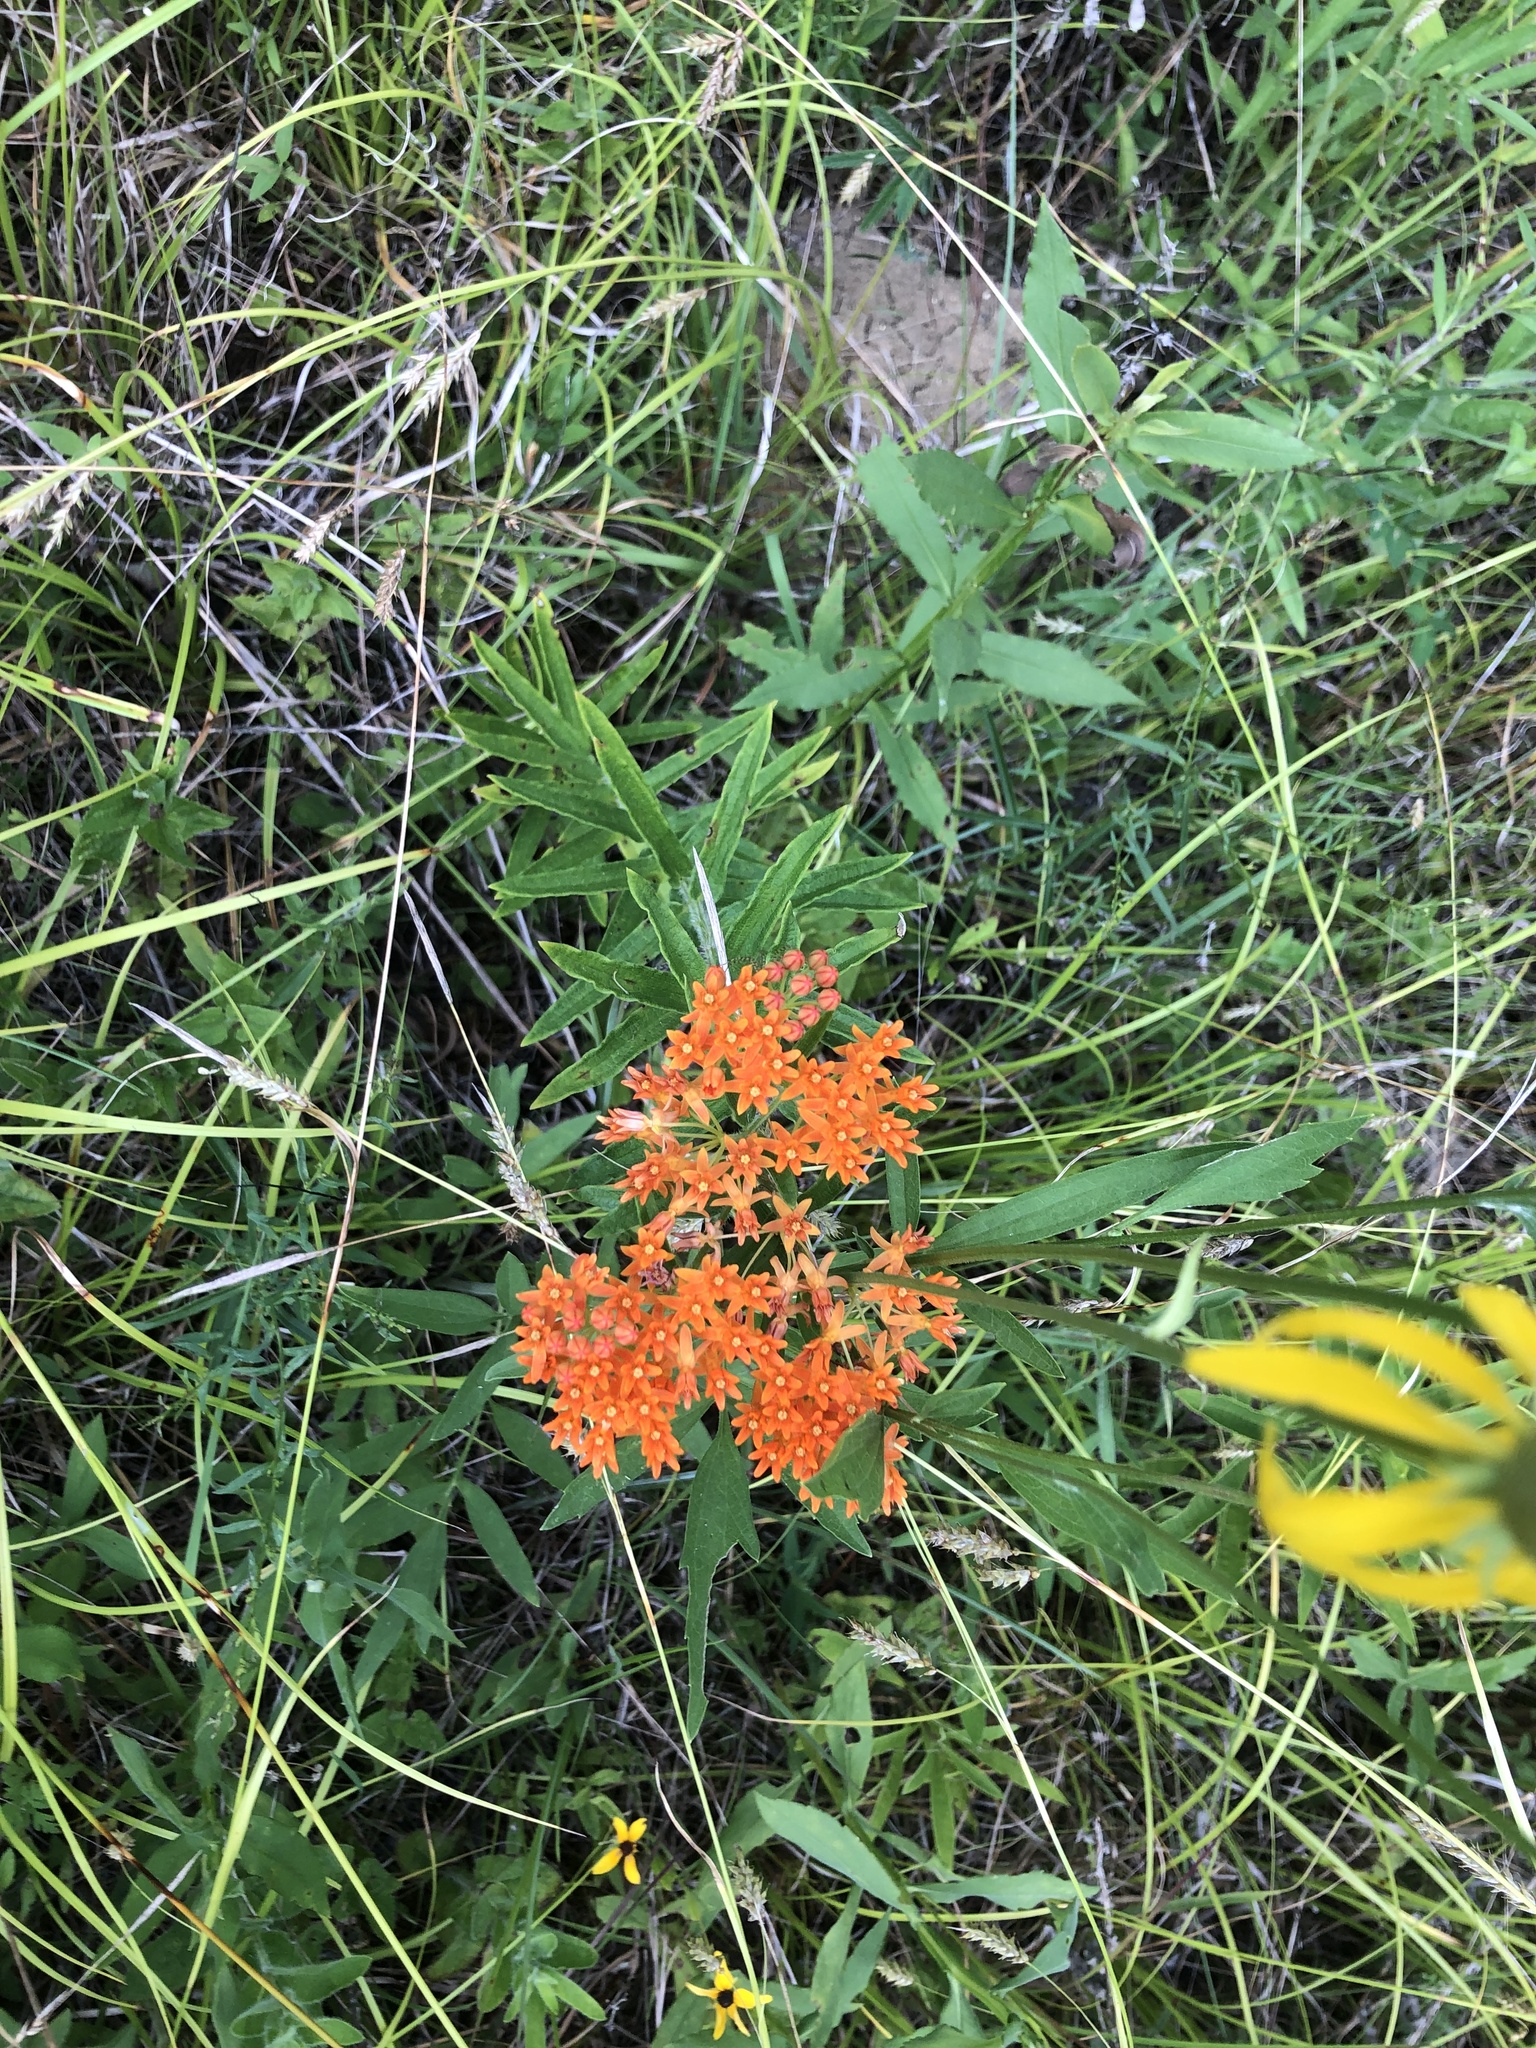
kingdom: Plantae
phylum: Tracheophyta
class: Magnoliopsida
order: Gentianales
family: Apocynaceae
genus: Asclepias
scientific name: Asclepias tuberosa
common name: Butterfly milkweed
